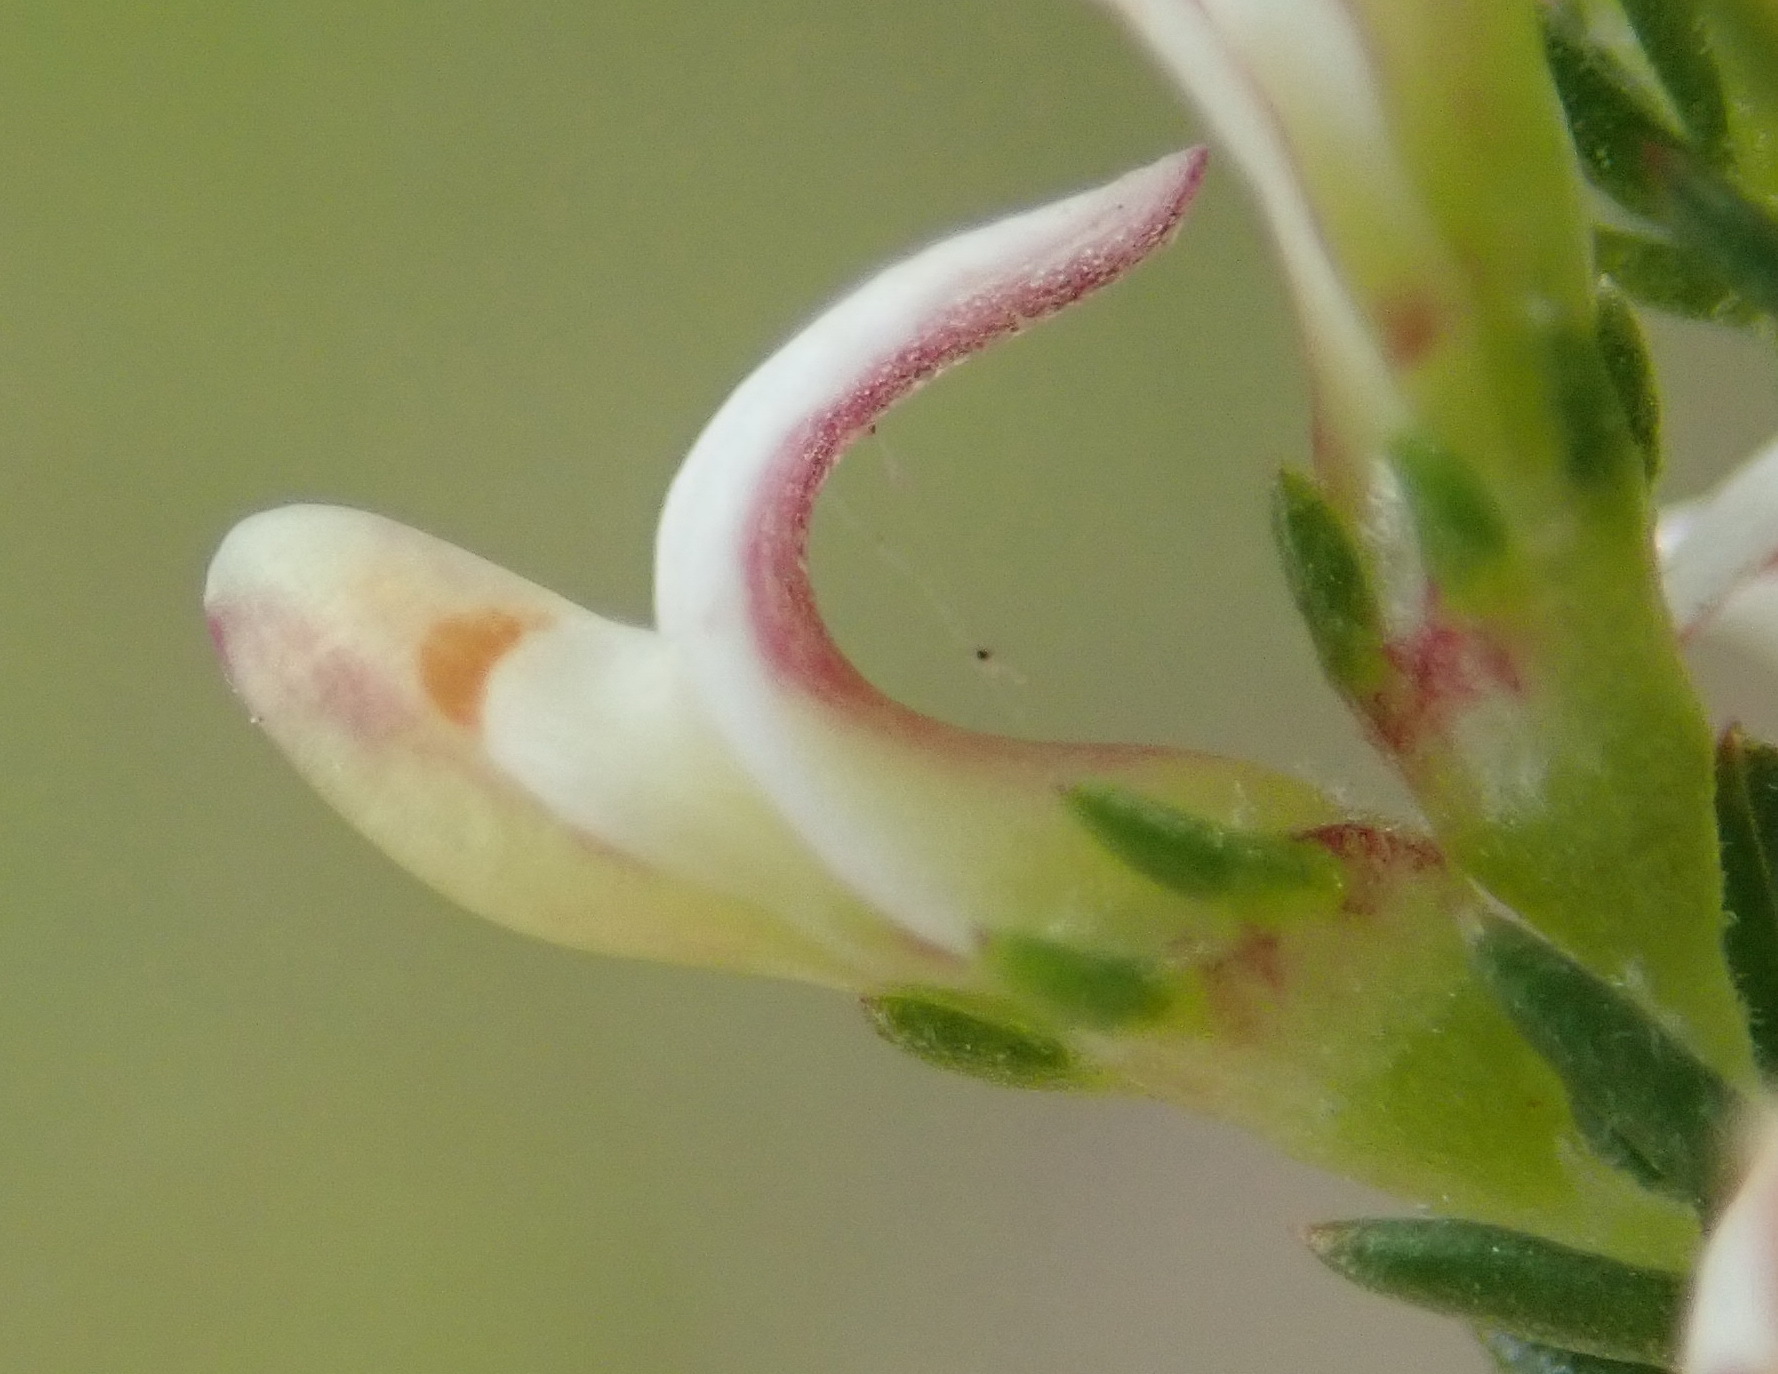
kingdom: Plantae
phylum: Tracheophyta
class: Magnoliopsida
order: Fabales
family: Fabaceae
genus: Aspalathus
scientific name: Aspalathus hispida
